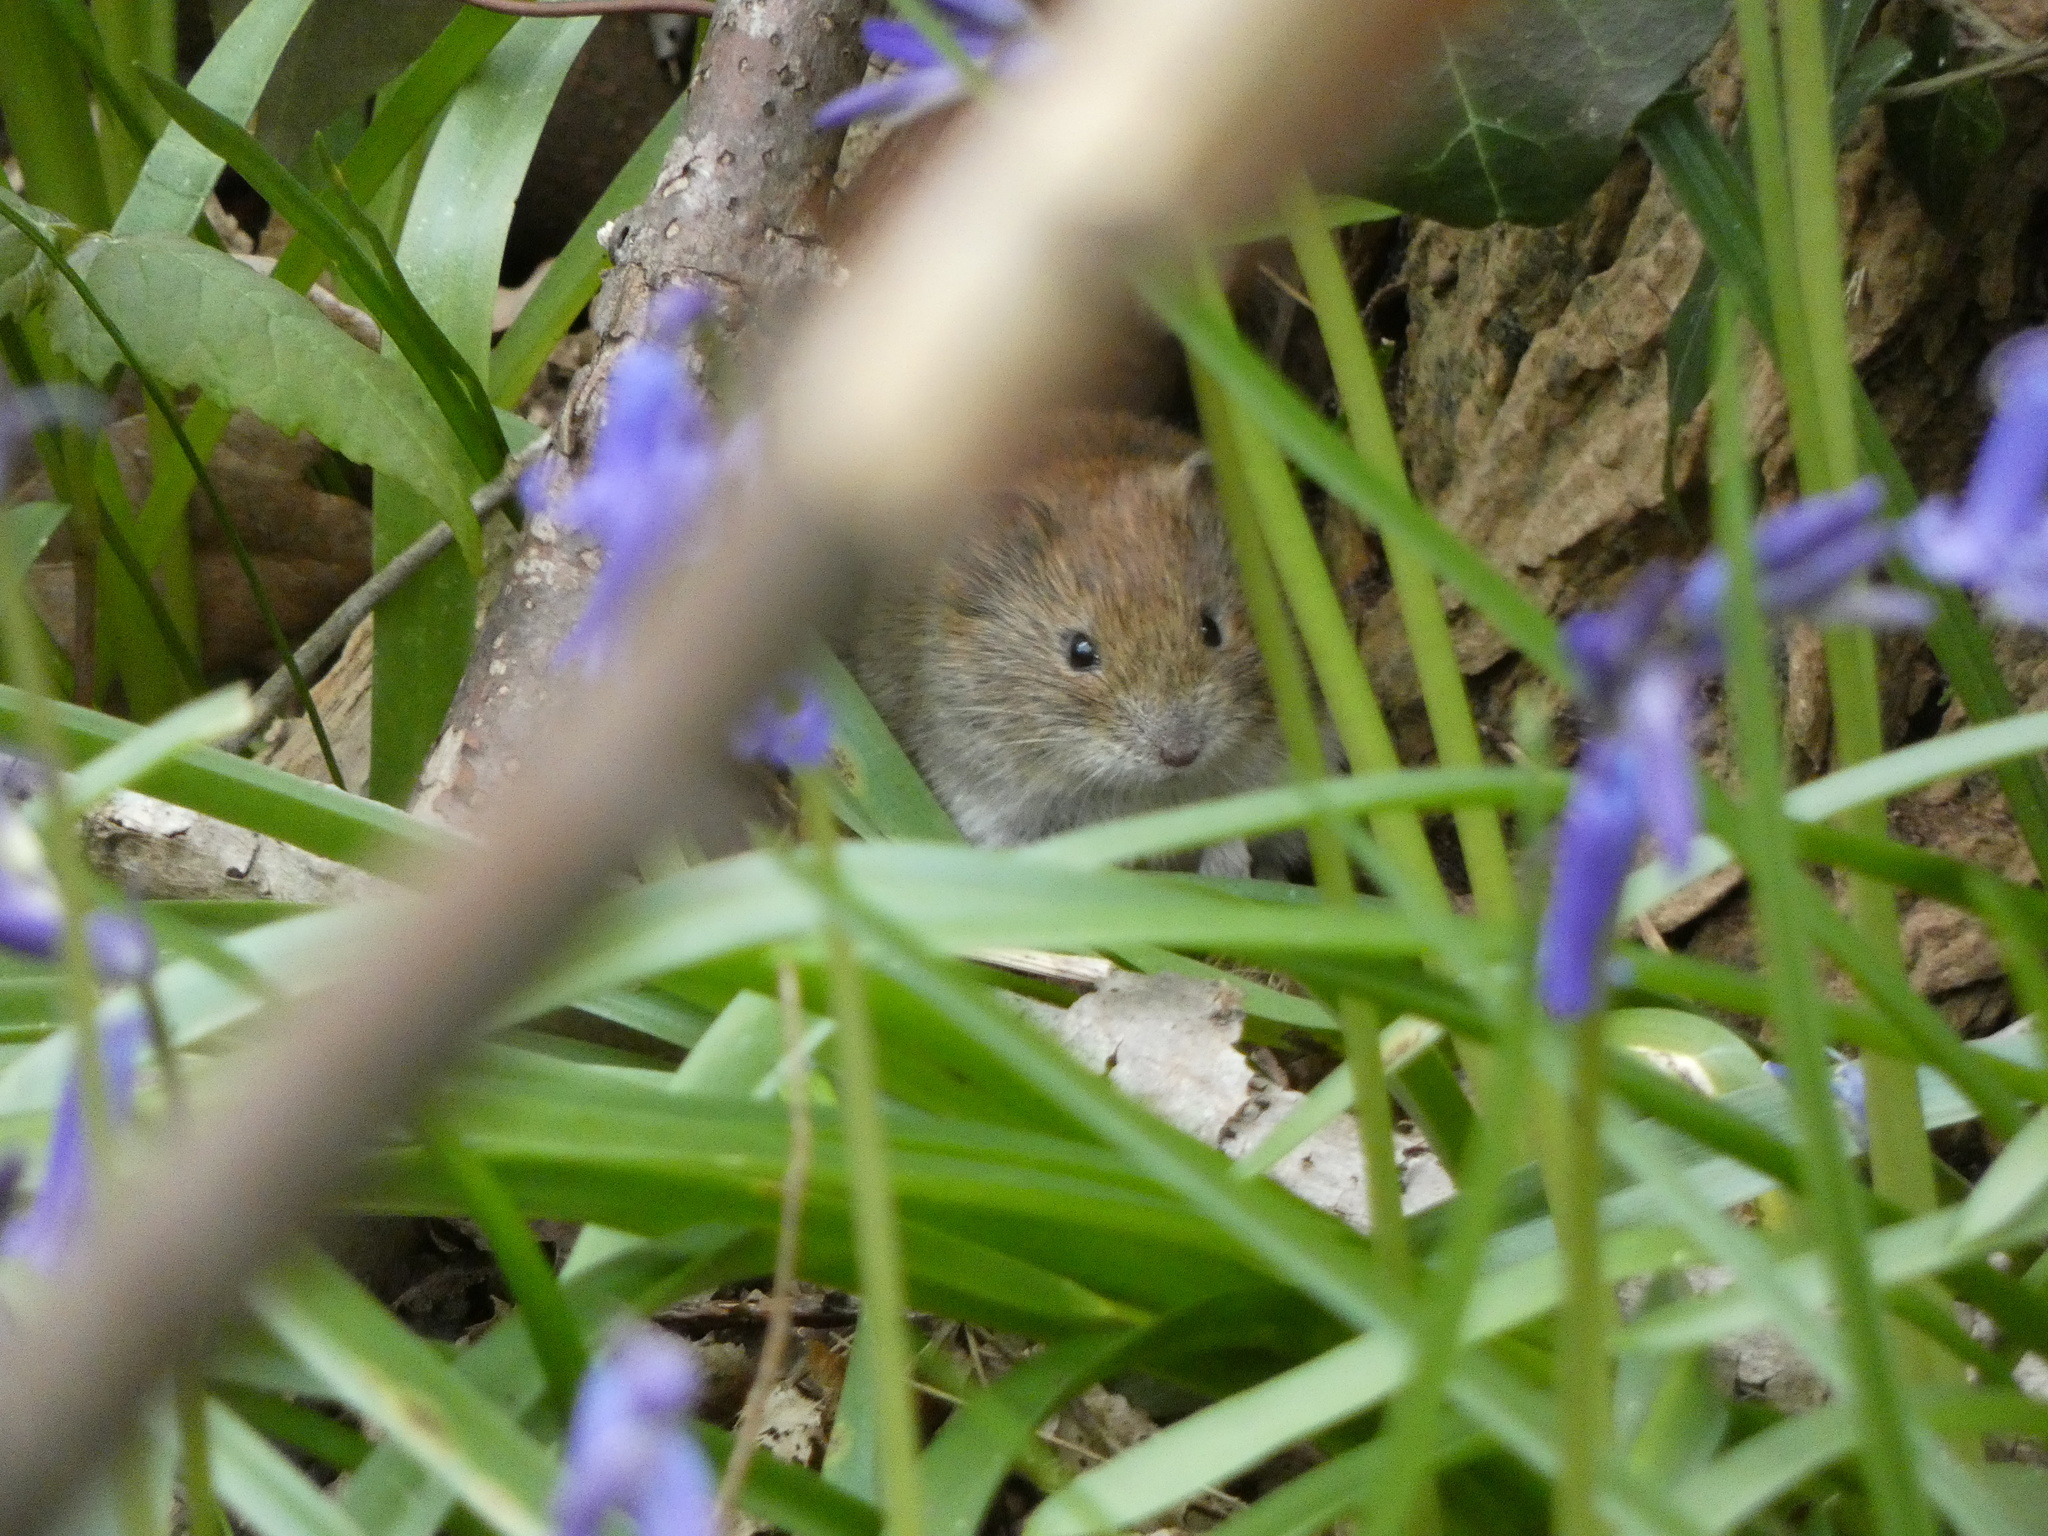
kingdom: Animalia
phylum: Chordata
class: Mammalia
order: Rodentia
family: Cricetidae
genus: Myodes
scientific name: Myodes glareolus
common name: Bank vole
